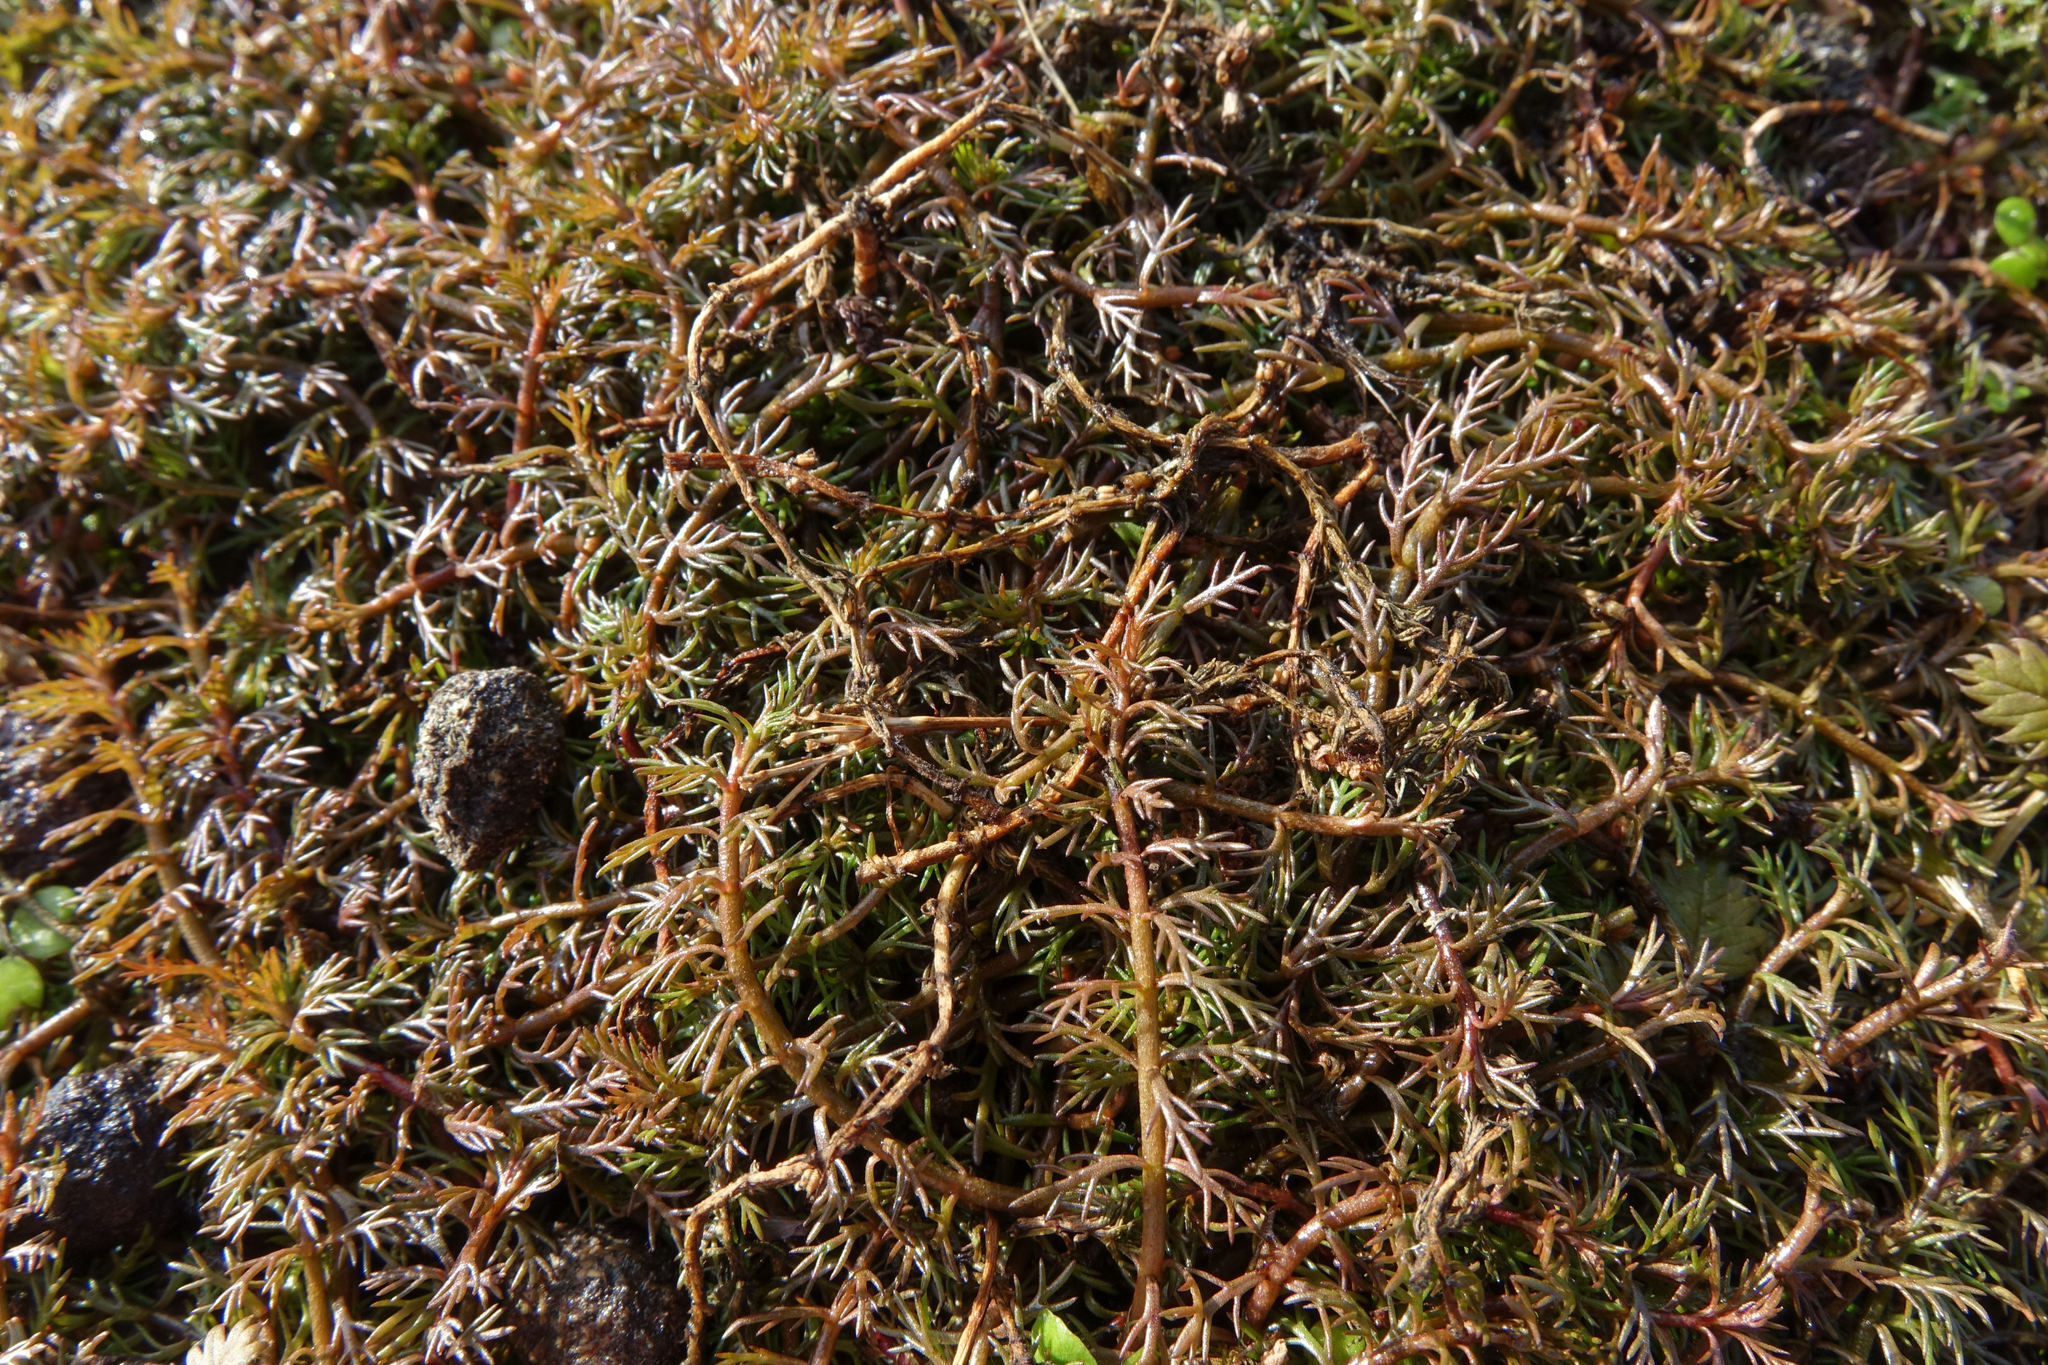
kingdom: Plantae
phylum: Tracheophyta
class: Magnoliopsida
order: Saxifragales
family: Haloragaceae
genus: Myriophyllum
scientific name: Myriophyllum propinquum
